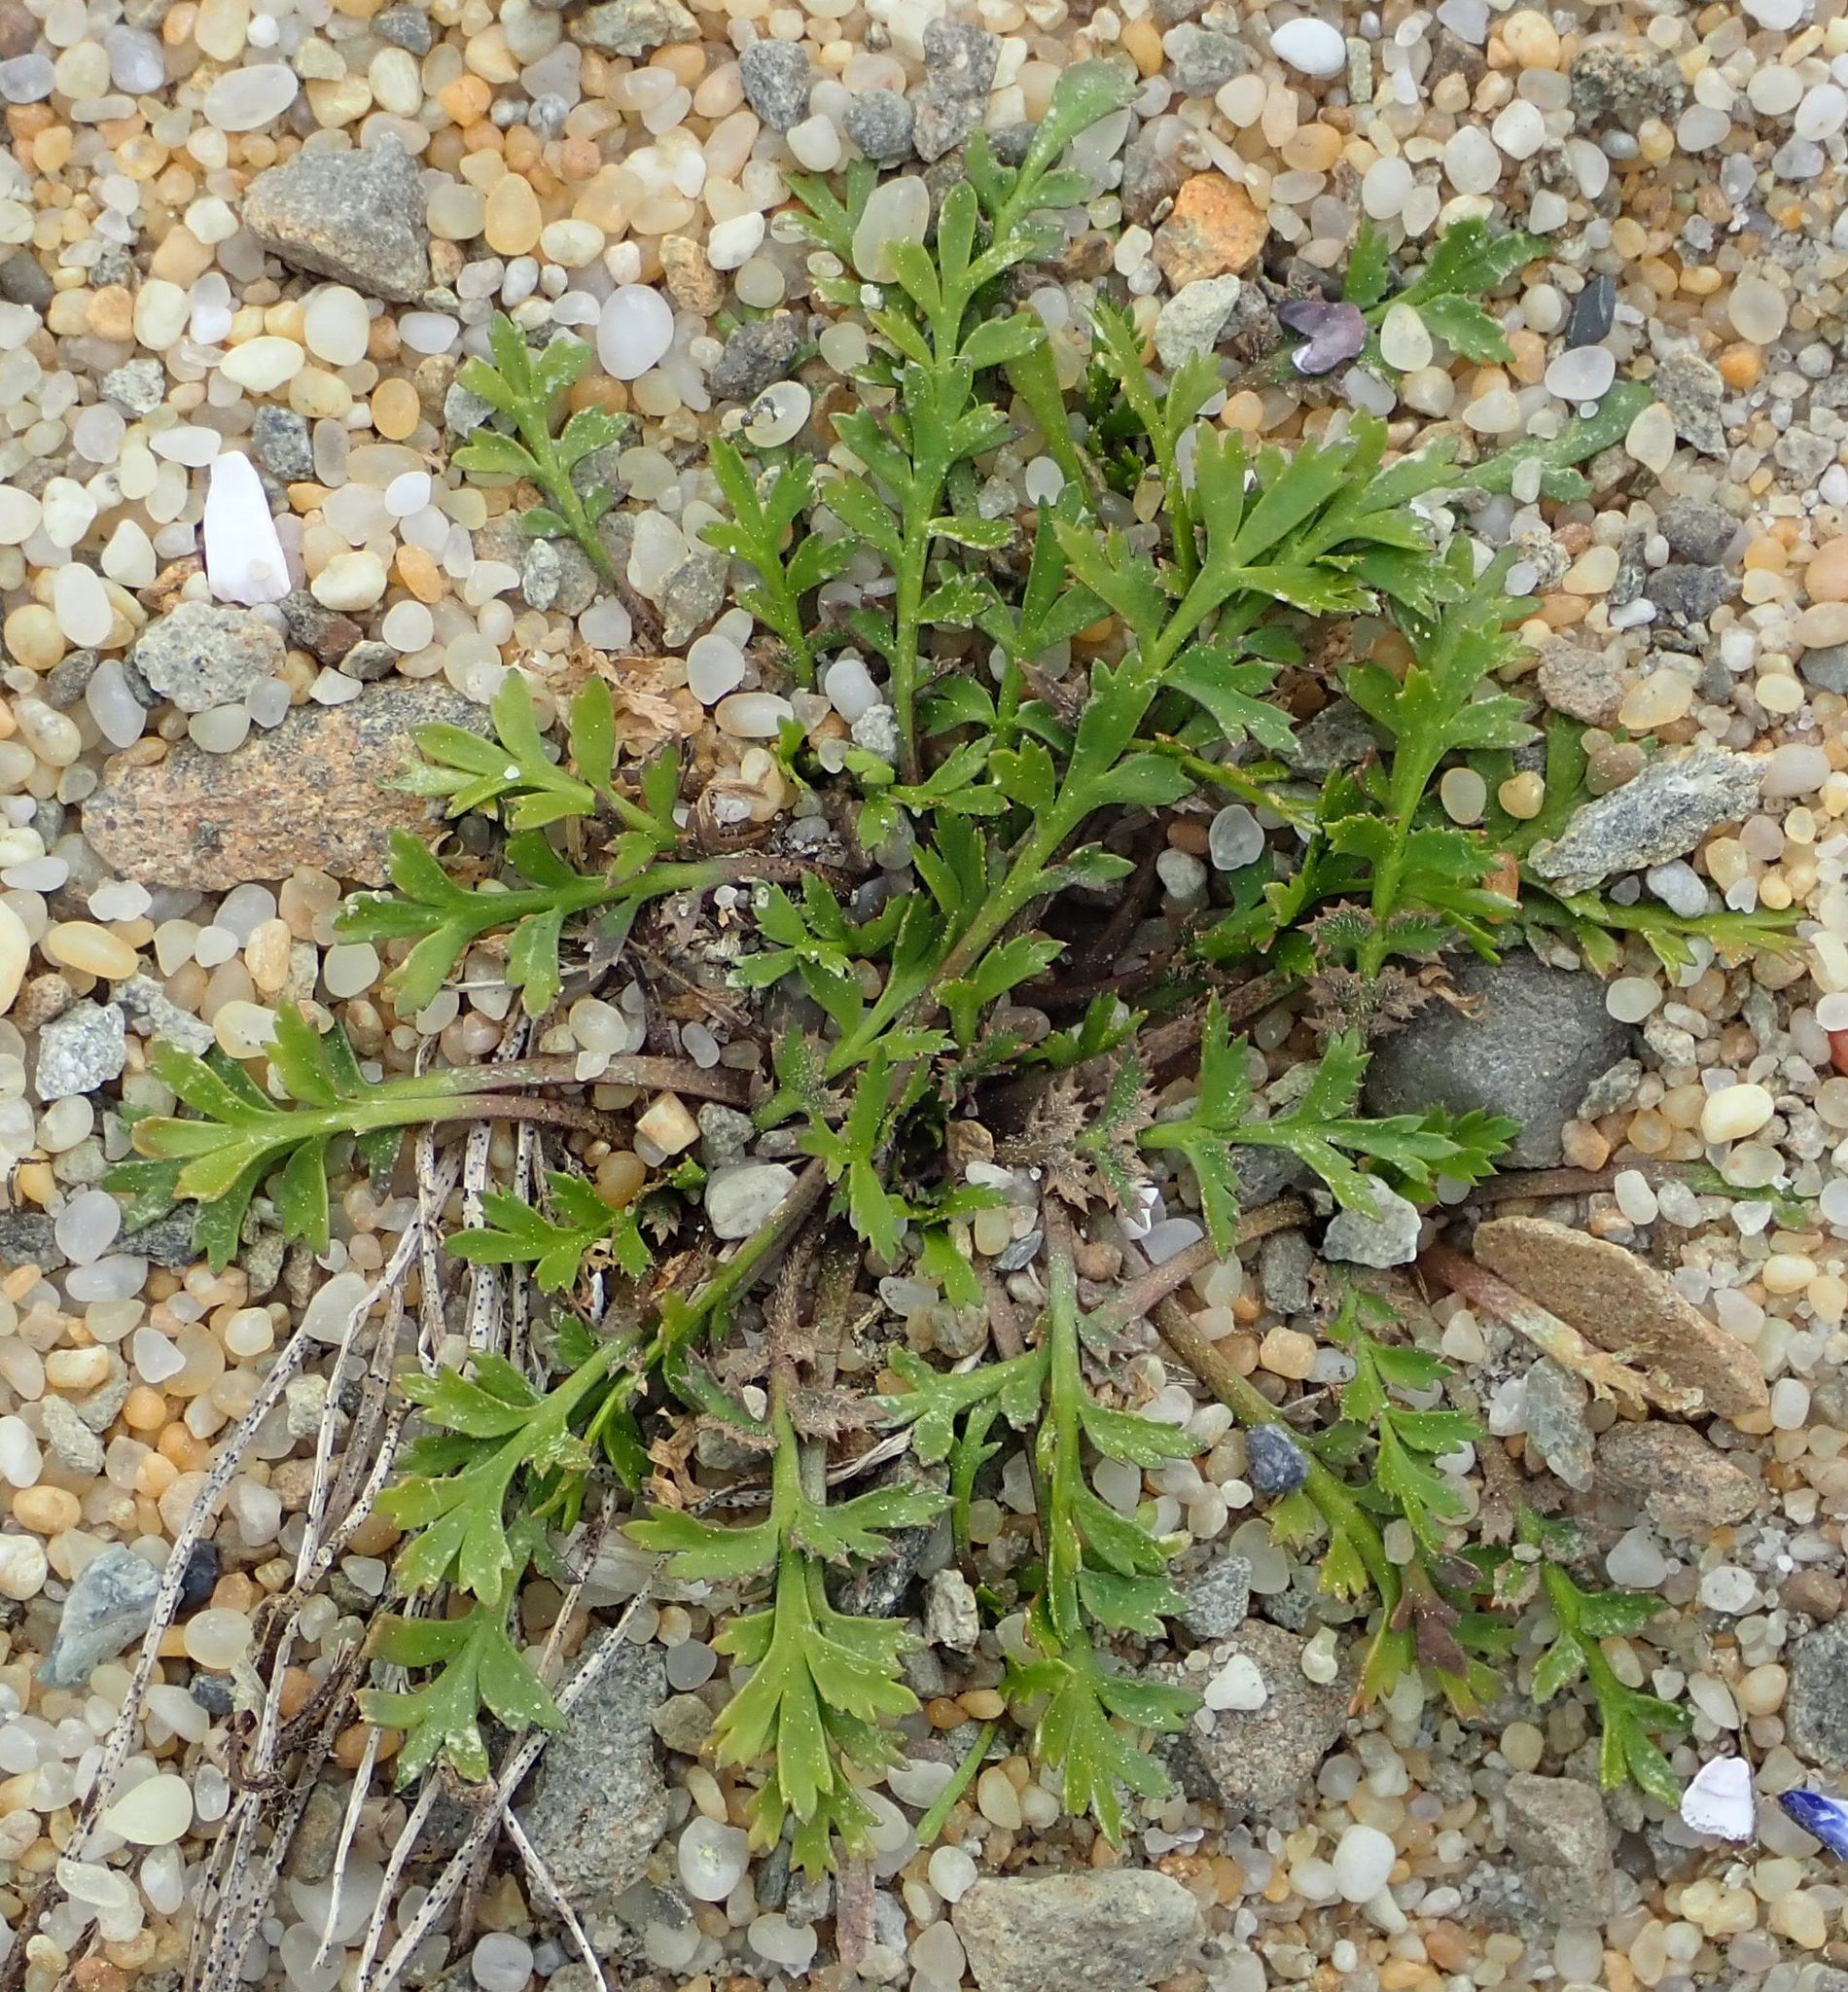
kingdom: Plantae
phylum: Tracheophyta
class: Magnoliopsida
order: Brassicales
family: Brassicaceae
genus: Lepidium
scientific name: Lepidium tenuicaule
